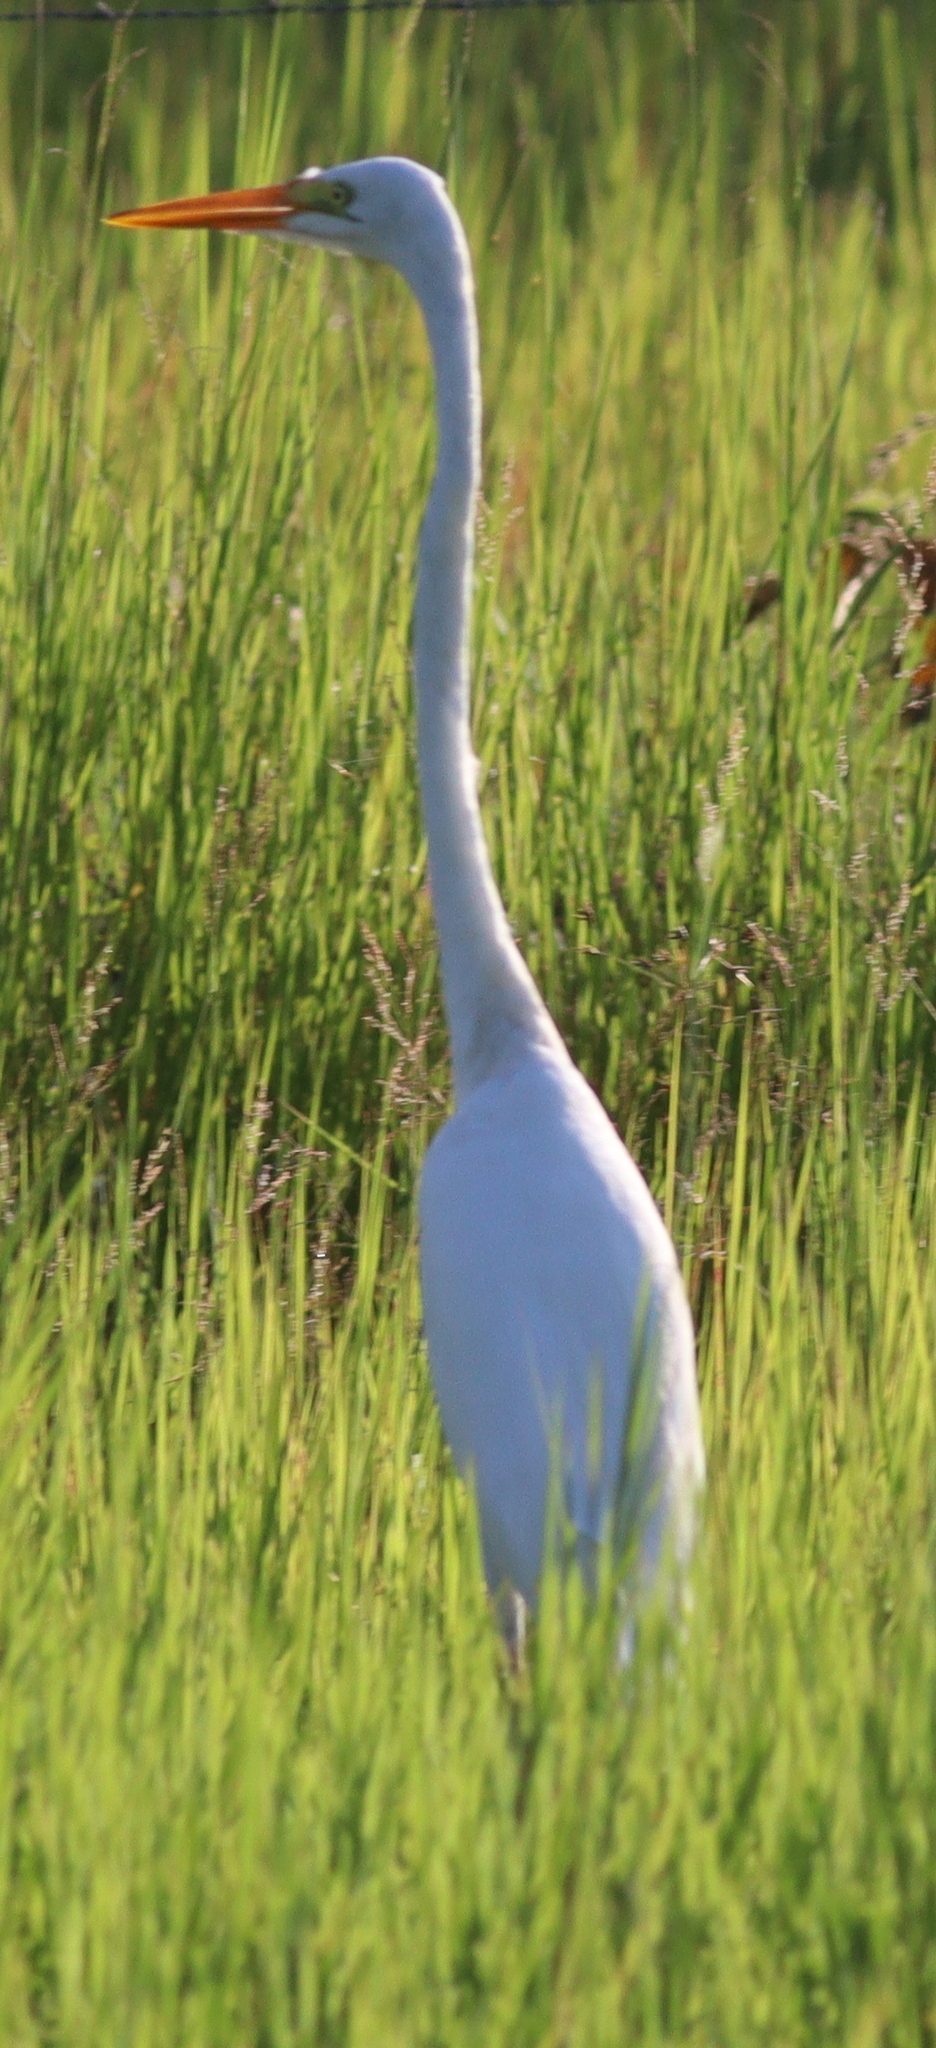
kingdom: Animalia
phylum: Chordata
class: Aves
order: Pelecaniformes
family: Ardeidae
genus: Ardea
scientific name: Ardea alba
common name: Great egret
